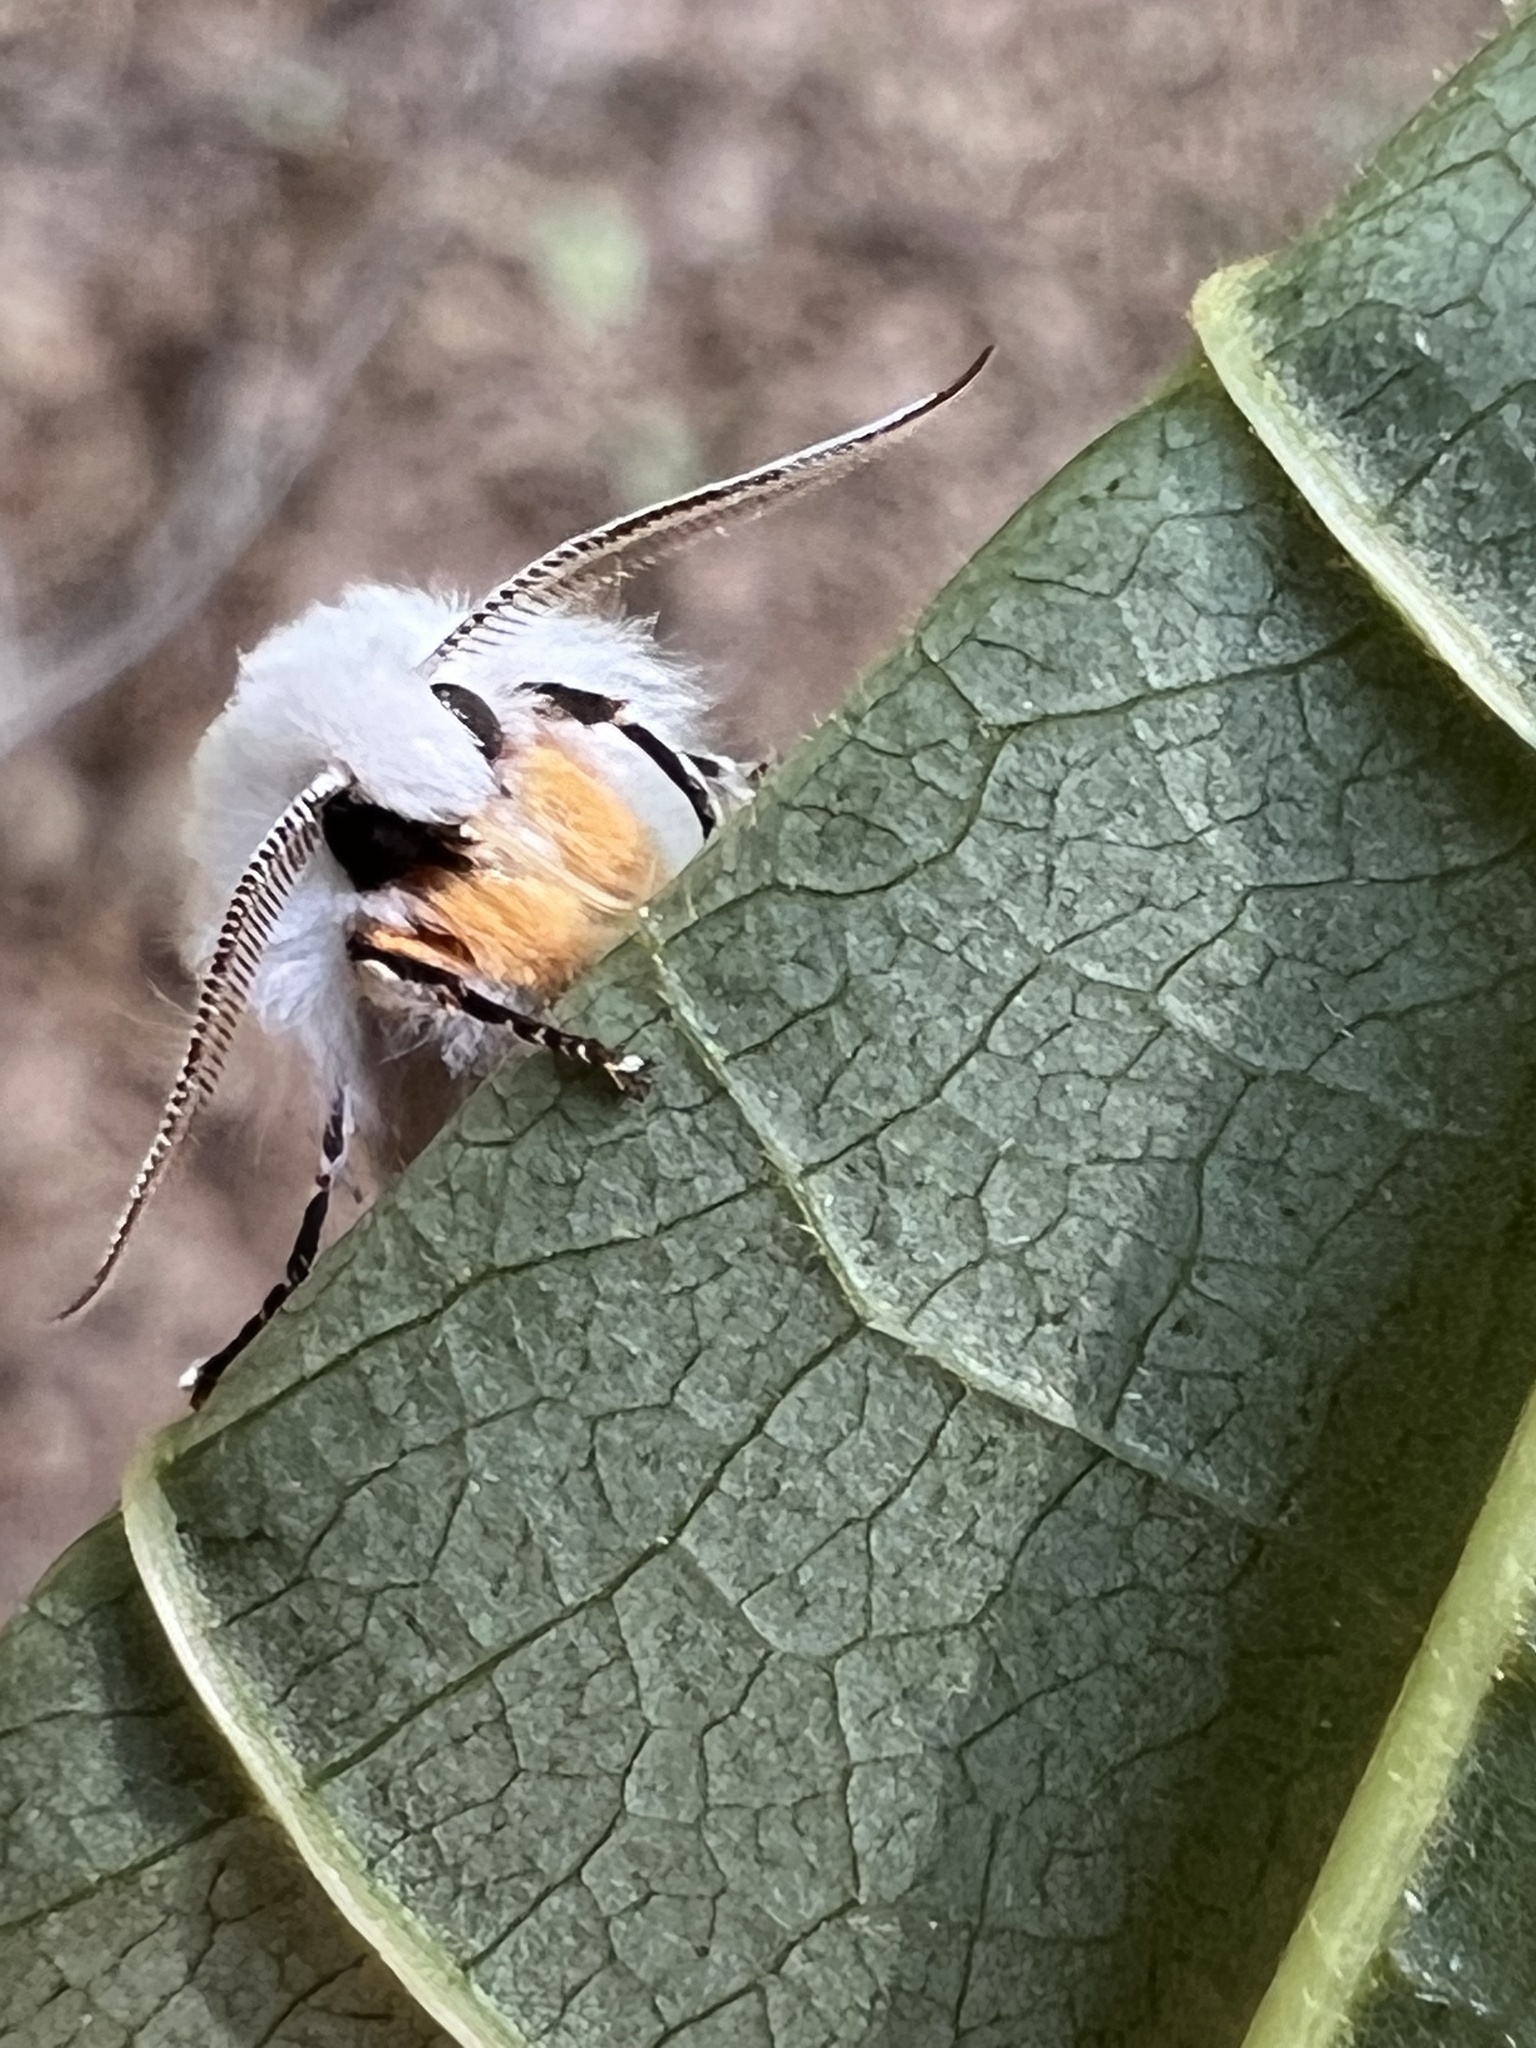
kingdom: Animalia
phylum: Arthropoda
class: Insecta
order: Lepidoptera
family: Erebidae
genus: Hyphantria
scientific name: Hyphantria cunea
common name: American white moth
